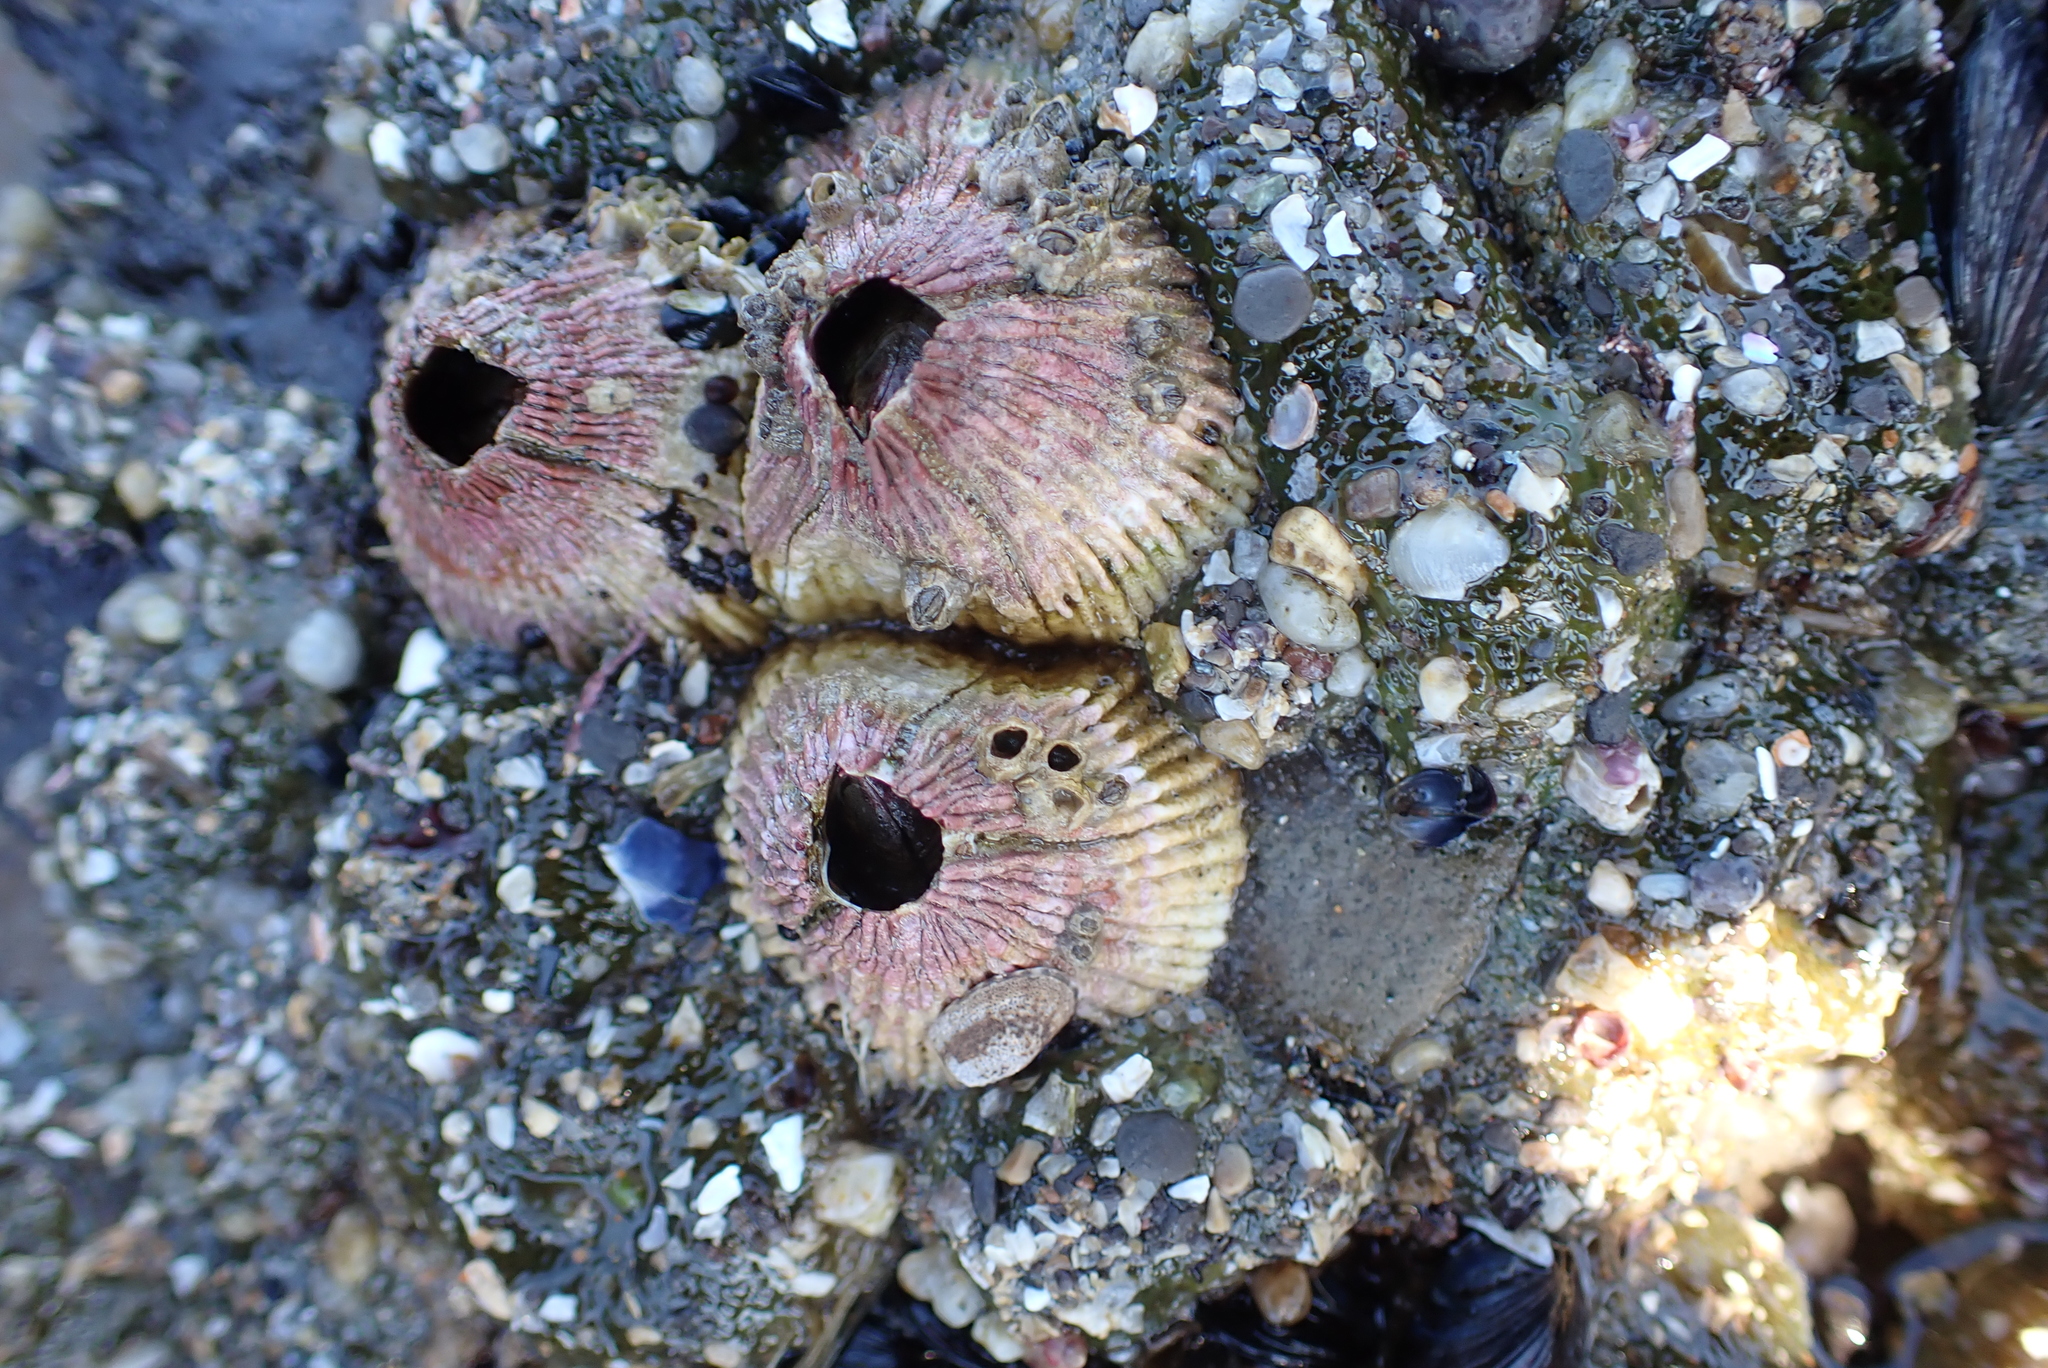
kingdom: Animalia
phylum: Cnidaria
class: Anthozoa
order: Actiniaria
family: Actiniidae
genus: Anthopleura
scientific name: Anthopleura elegantissima
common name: Clonal anemone
